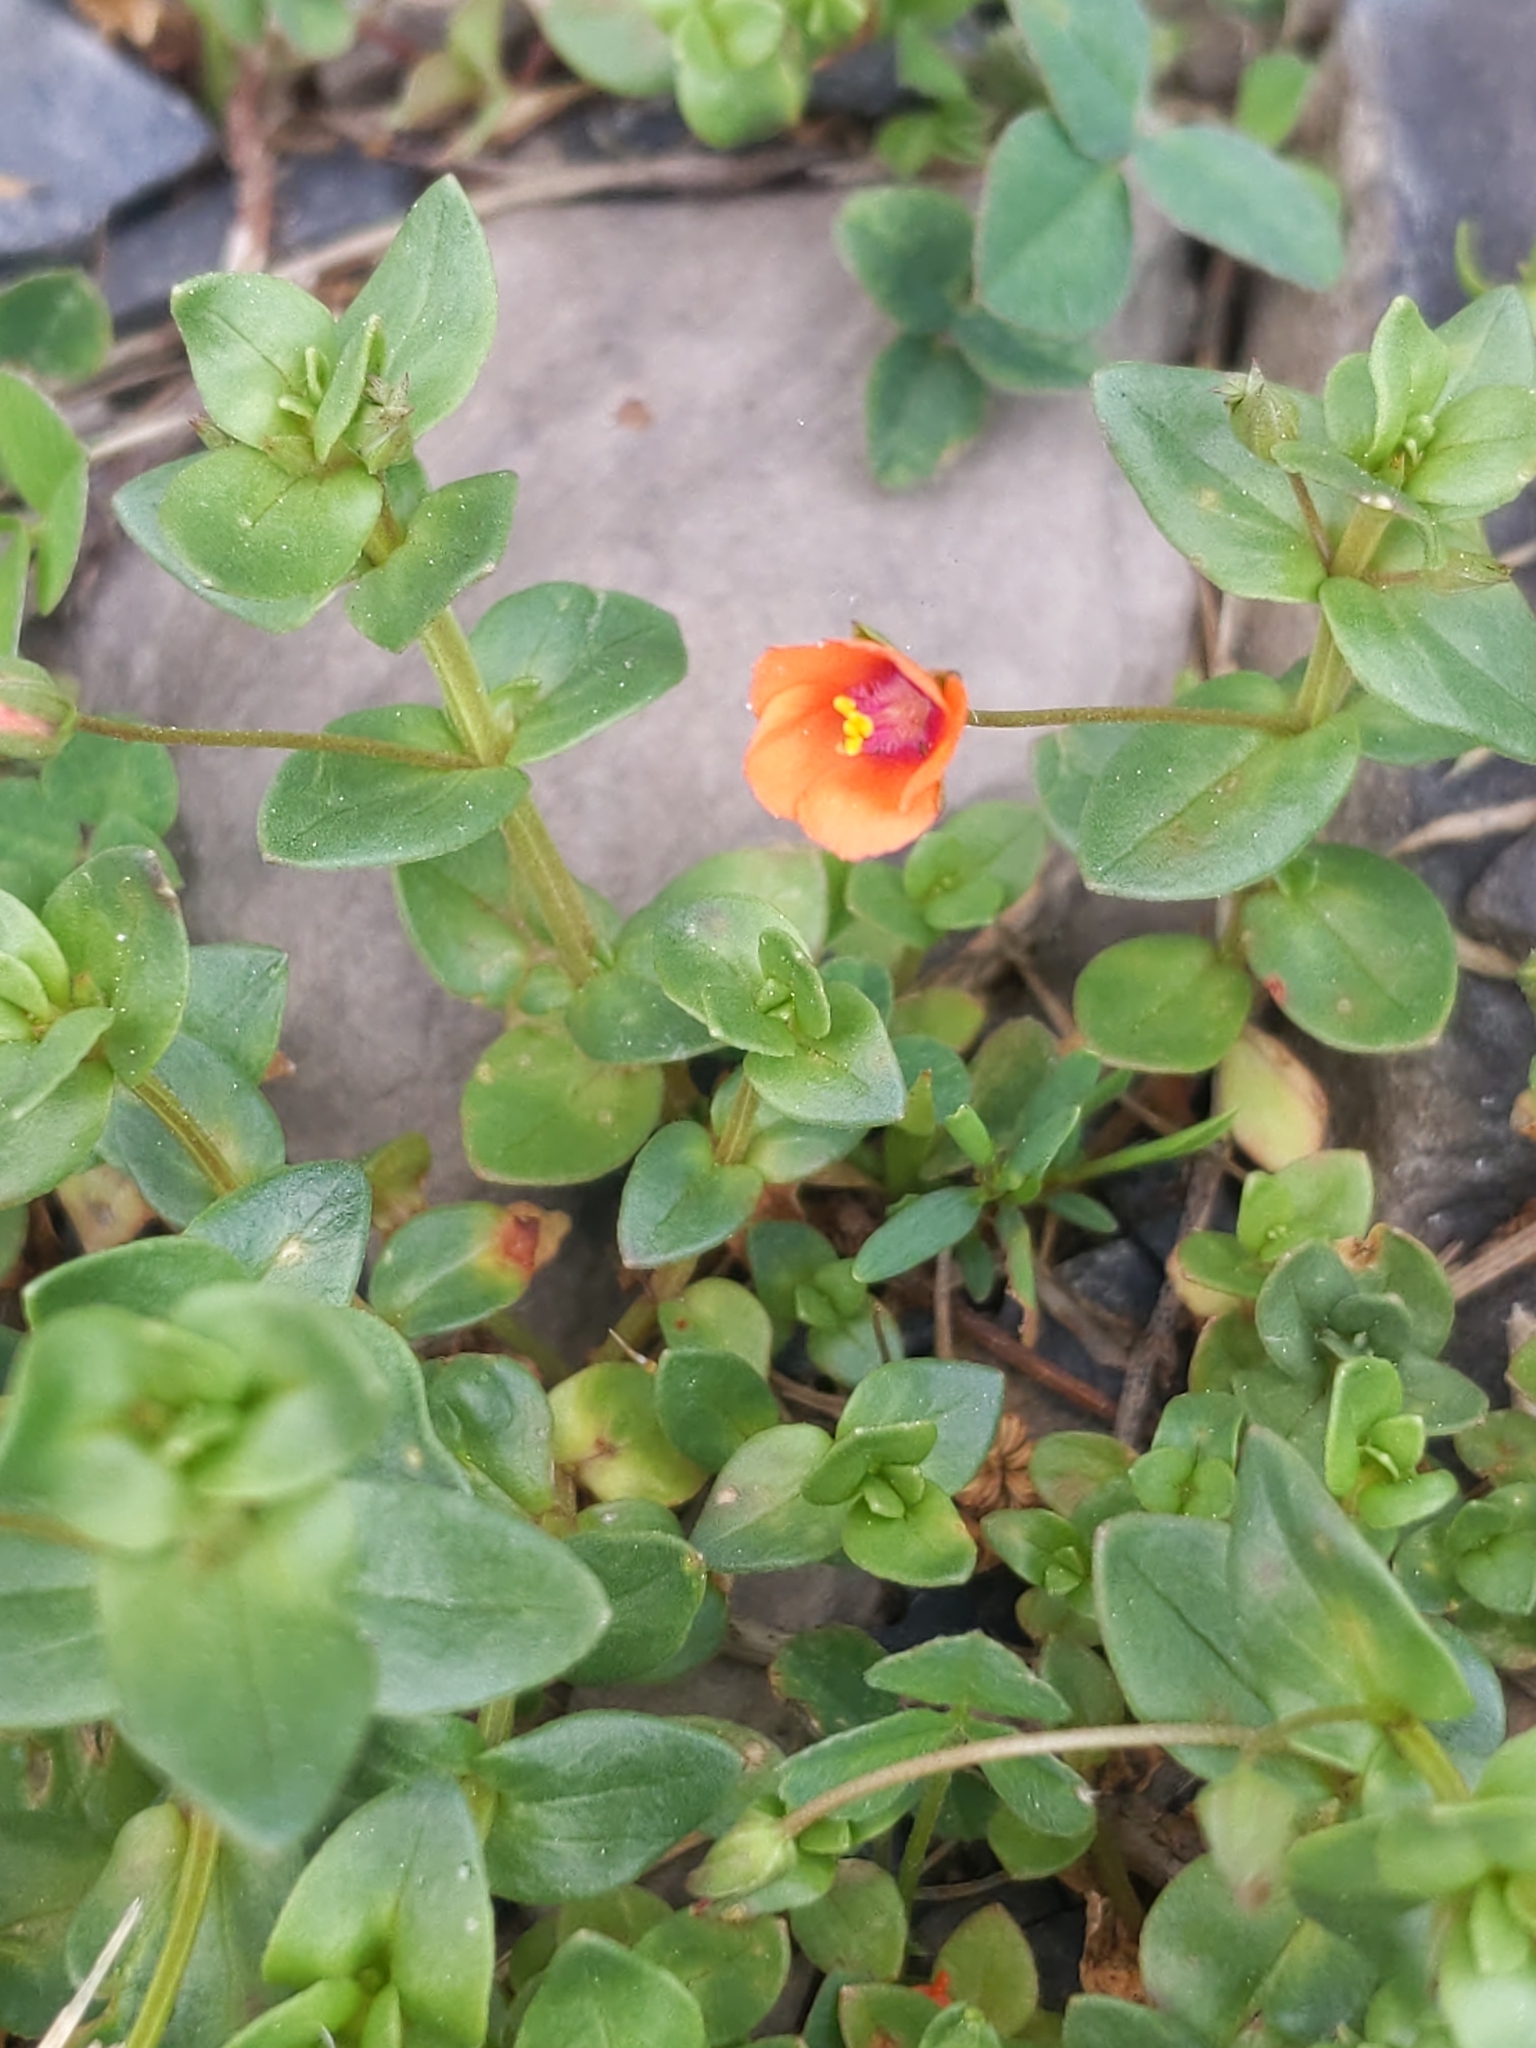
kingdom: Plantae
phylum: Tracheophyta
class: Magnoliopsida
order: Ericales
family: Primulaceae
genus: Lysimachia
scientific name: Lysimachia arvensis
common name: Scarlet pimpernel
